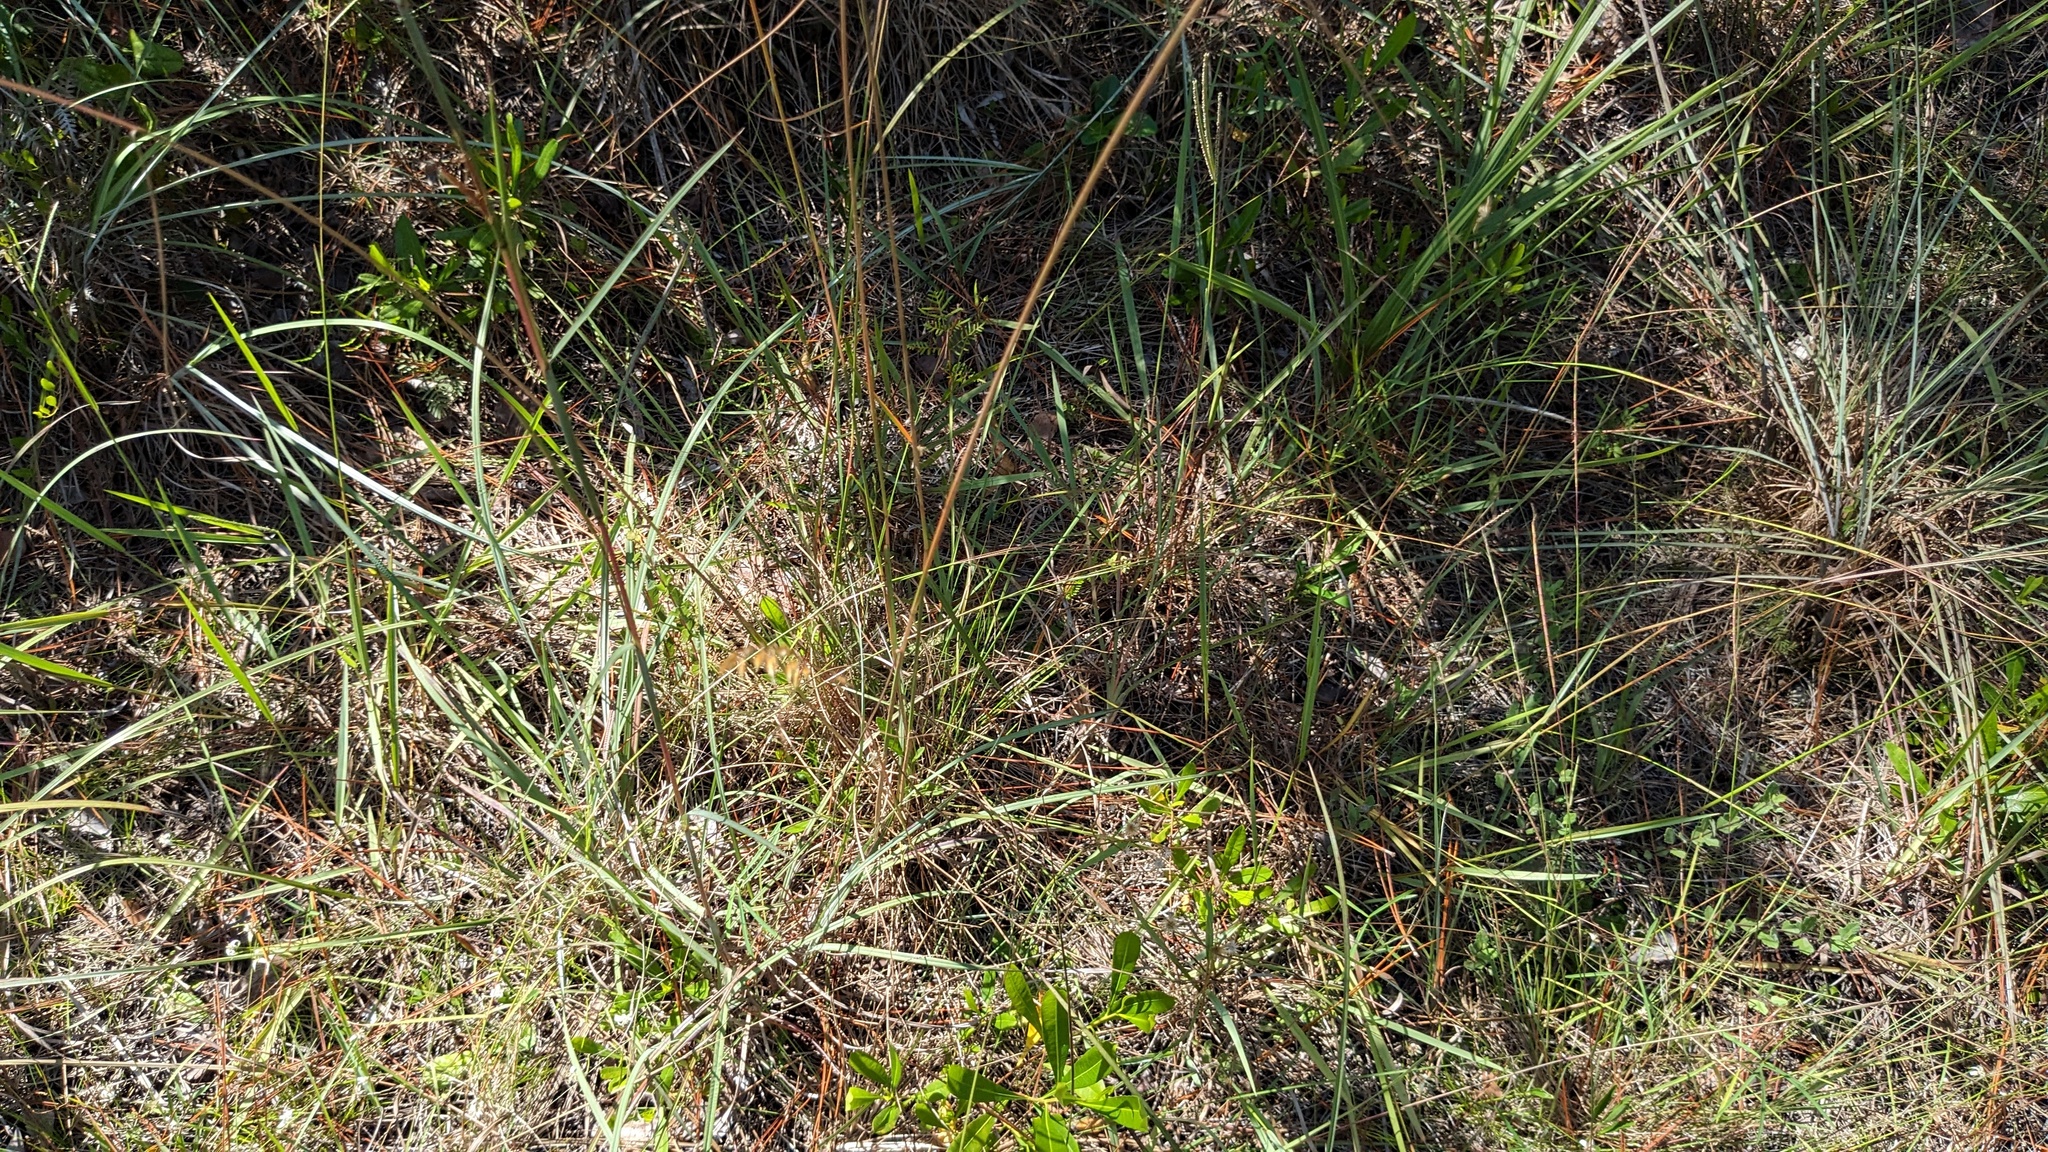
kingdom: Plantae
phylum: Tracheophyta
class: Liliopsida
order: Poales
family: Poaceae
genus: Sorghastrum
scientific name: Sorghastrum secundum
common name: Lopsided indian grass
